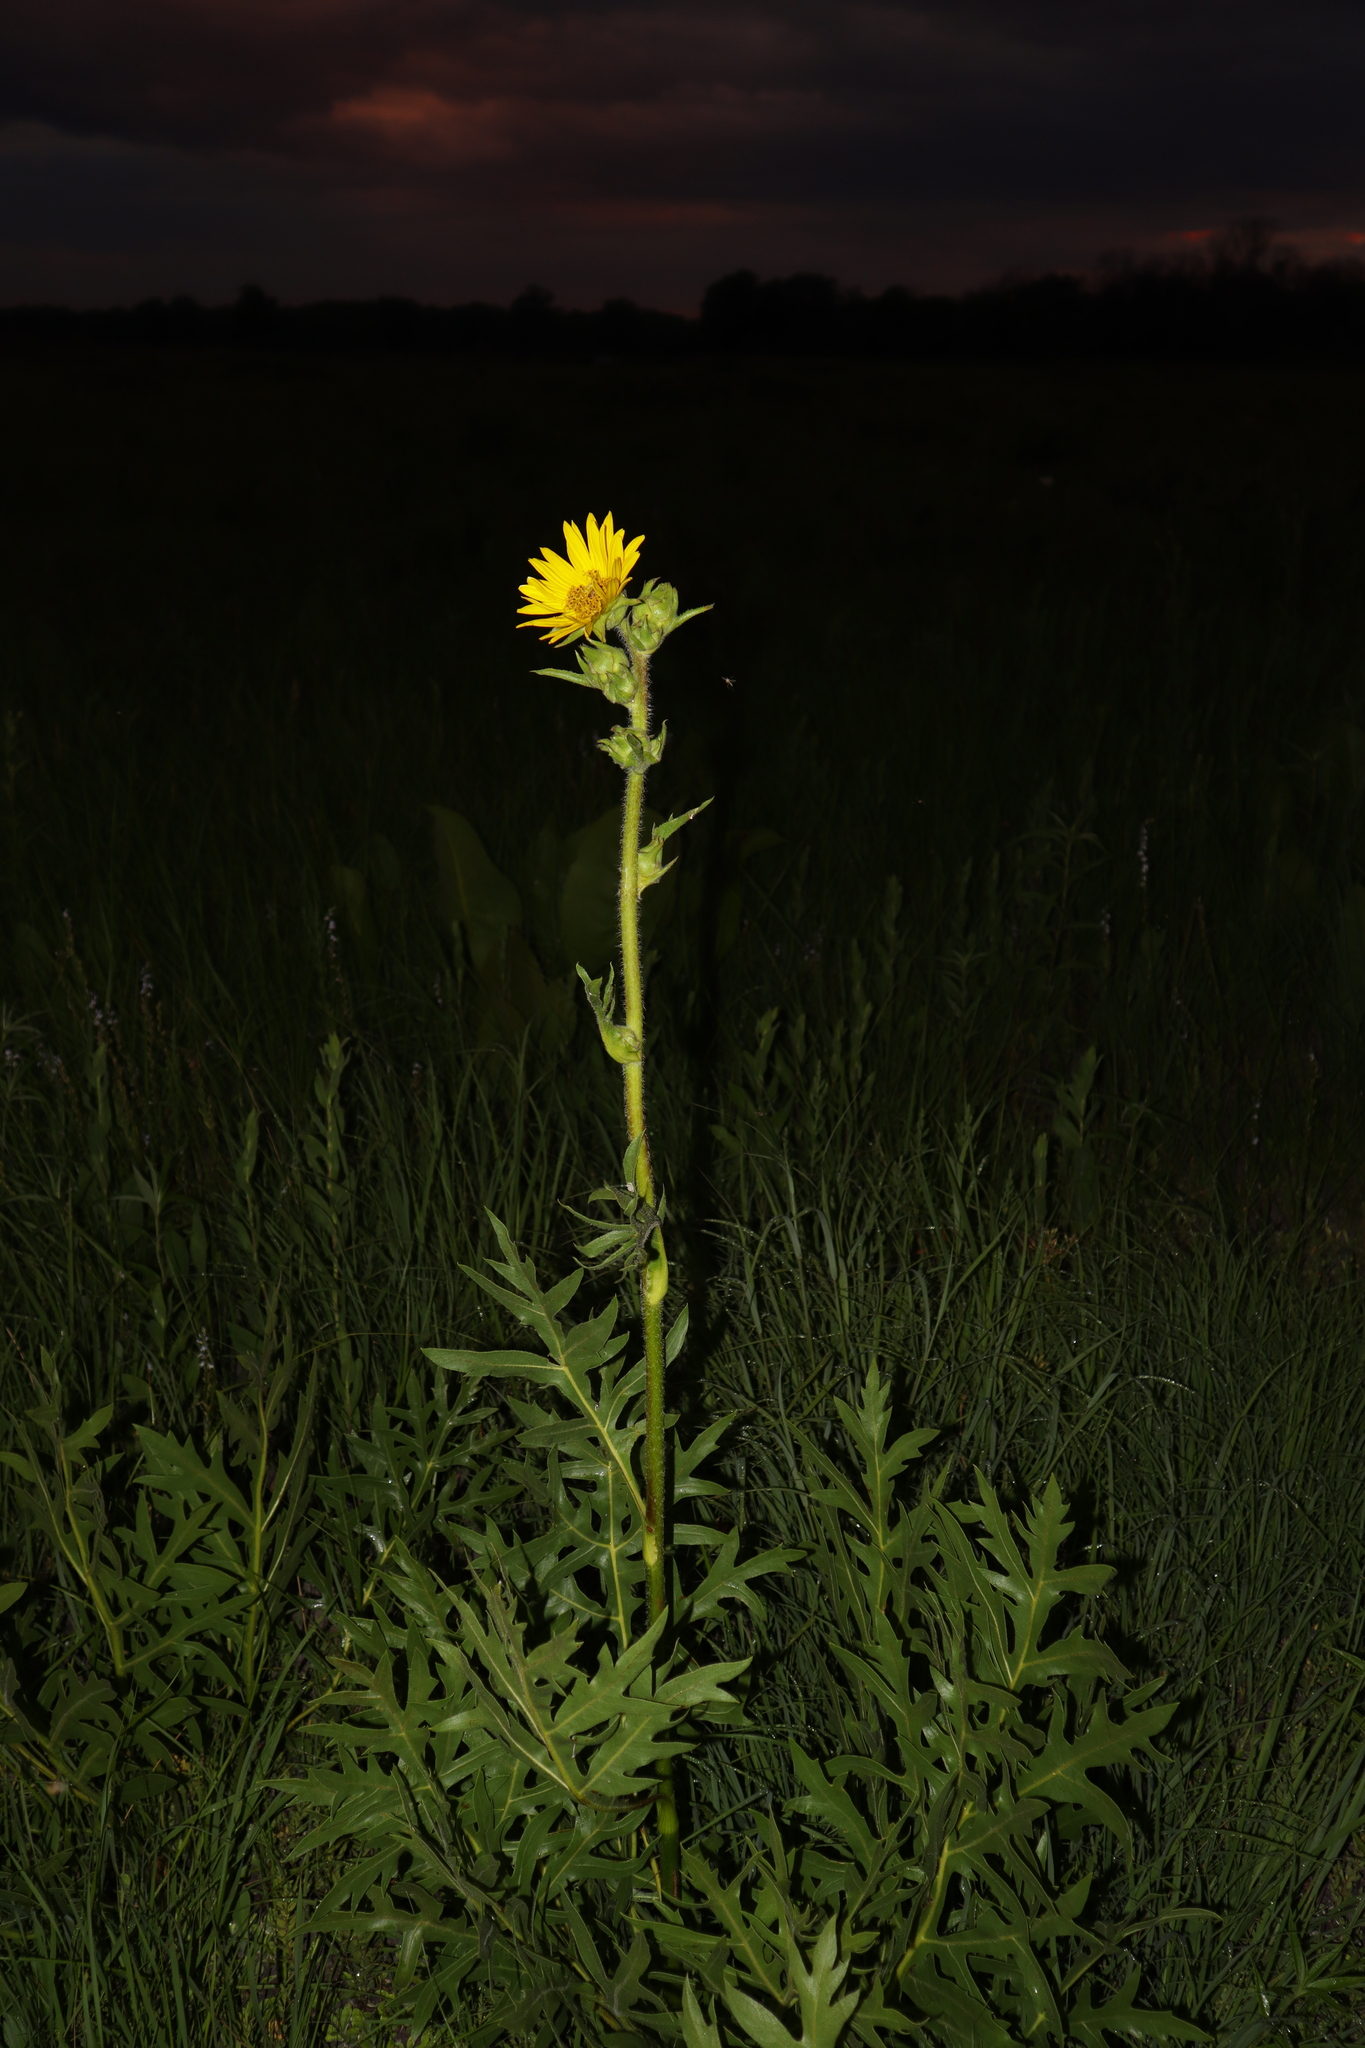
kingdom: Plantae
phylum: Tracheophyta
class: Magnoliopsida
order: Asterales
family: Asteraceae
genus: Silphium
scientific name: Silphium laciniatum
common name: Polarplant
